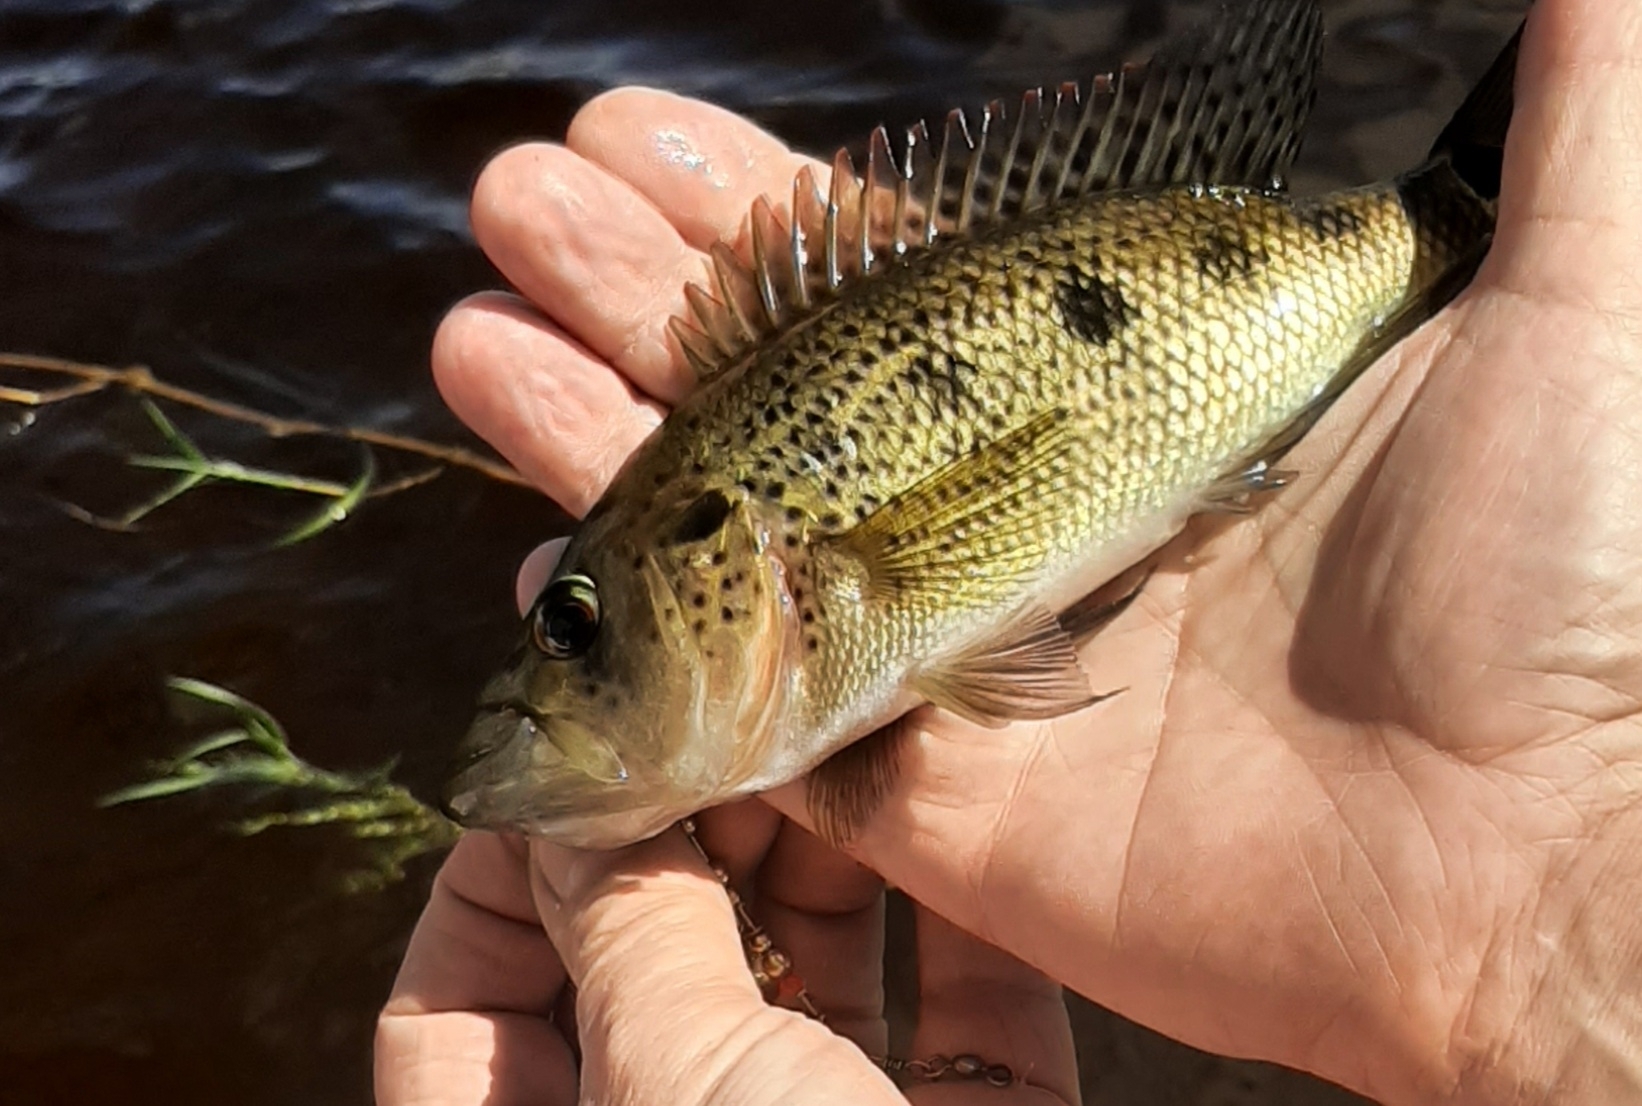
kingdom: Animalia
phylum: Chordata
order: Perciformes
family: Cichlidae
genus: Petenia
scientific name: Petenia splendida
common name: Bay snook
